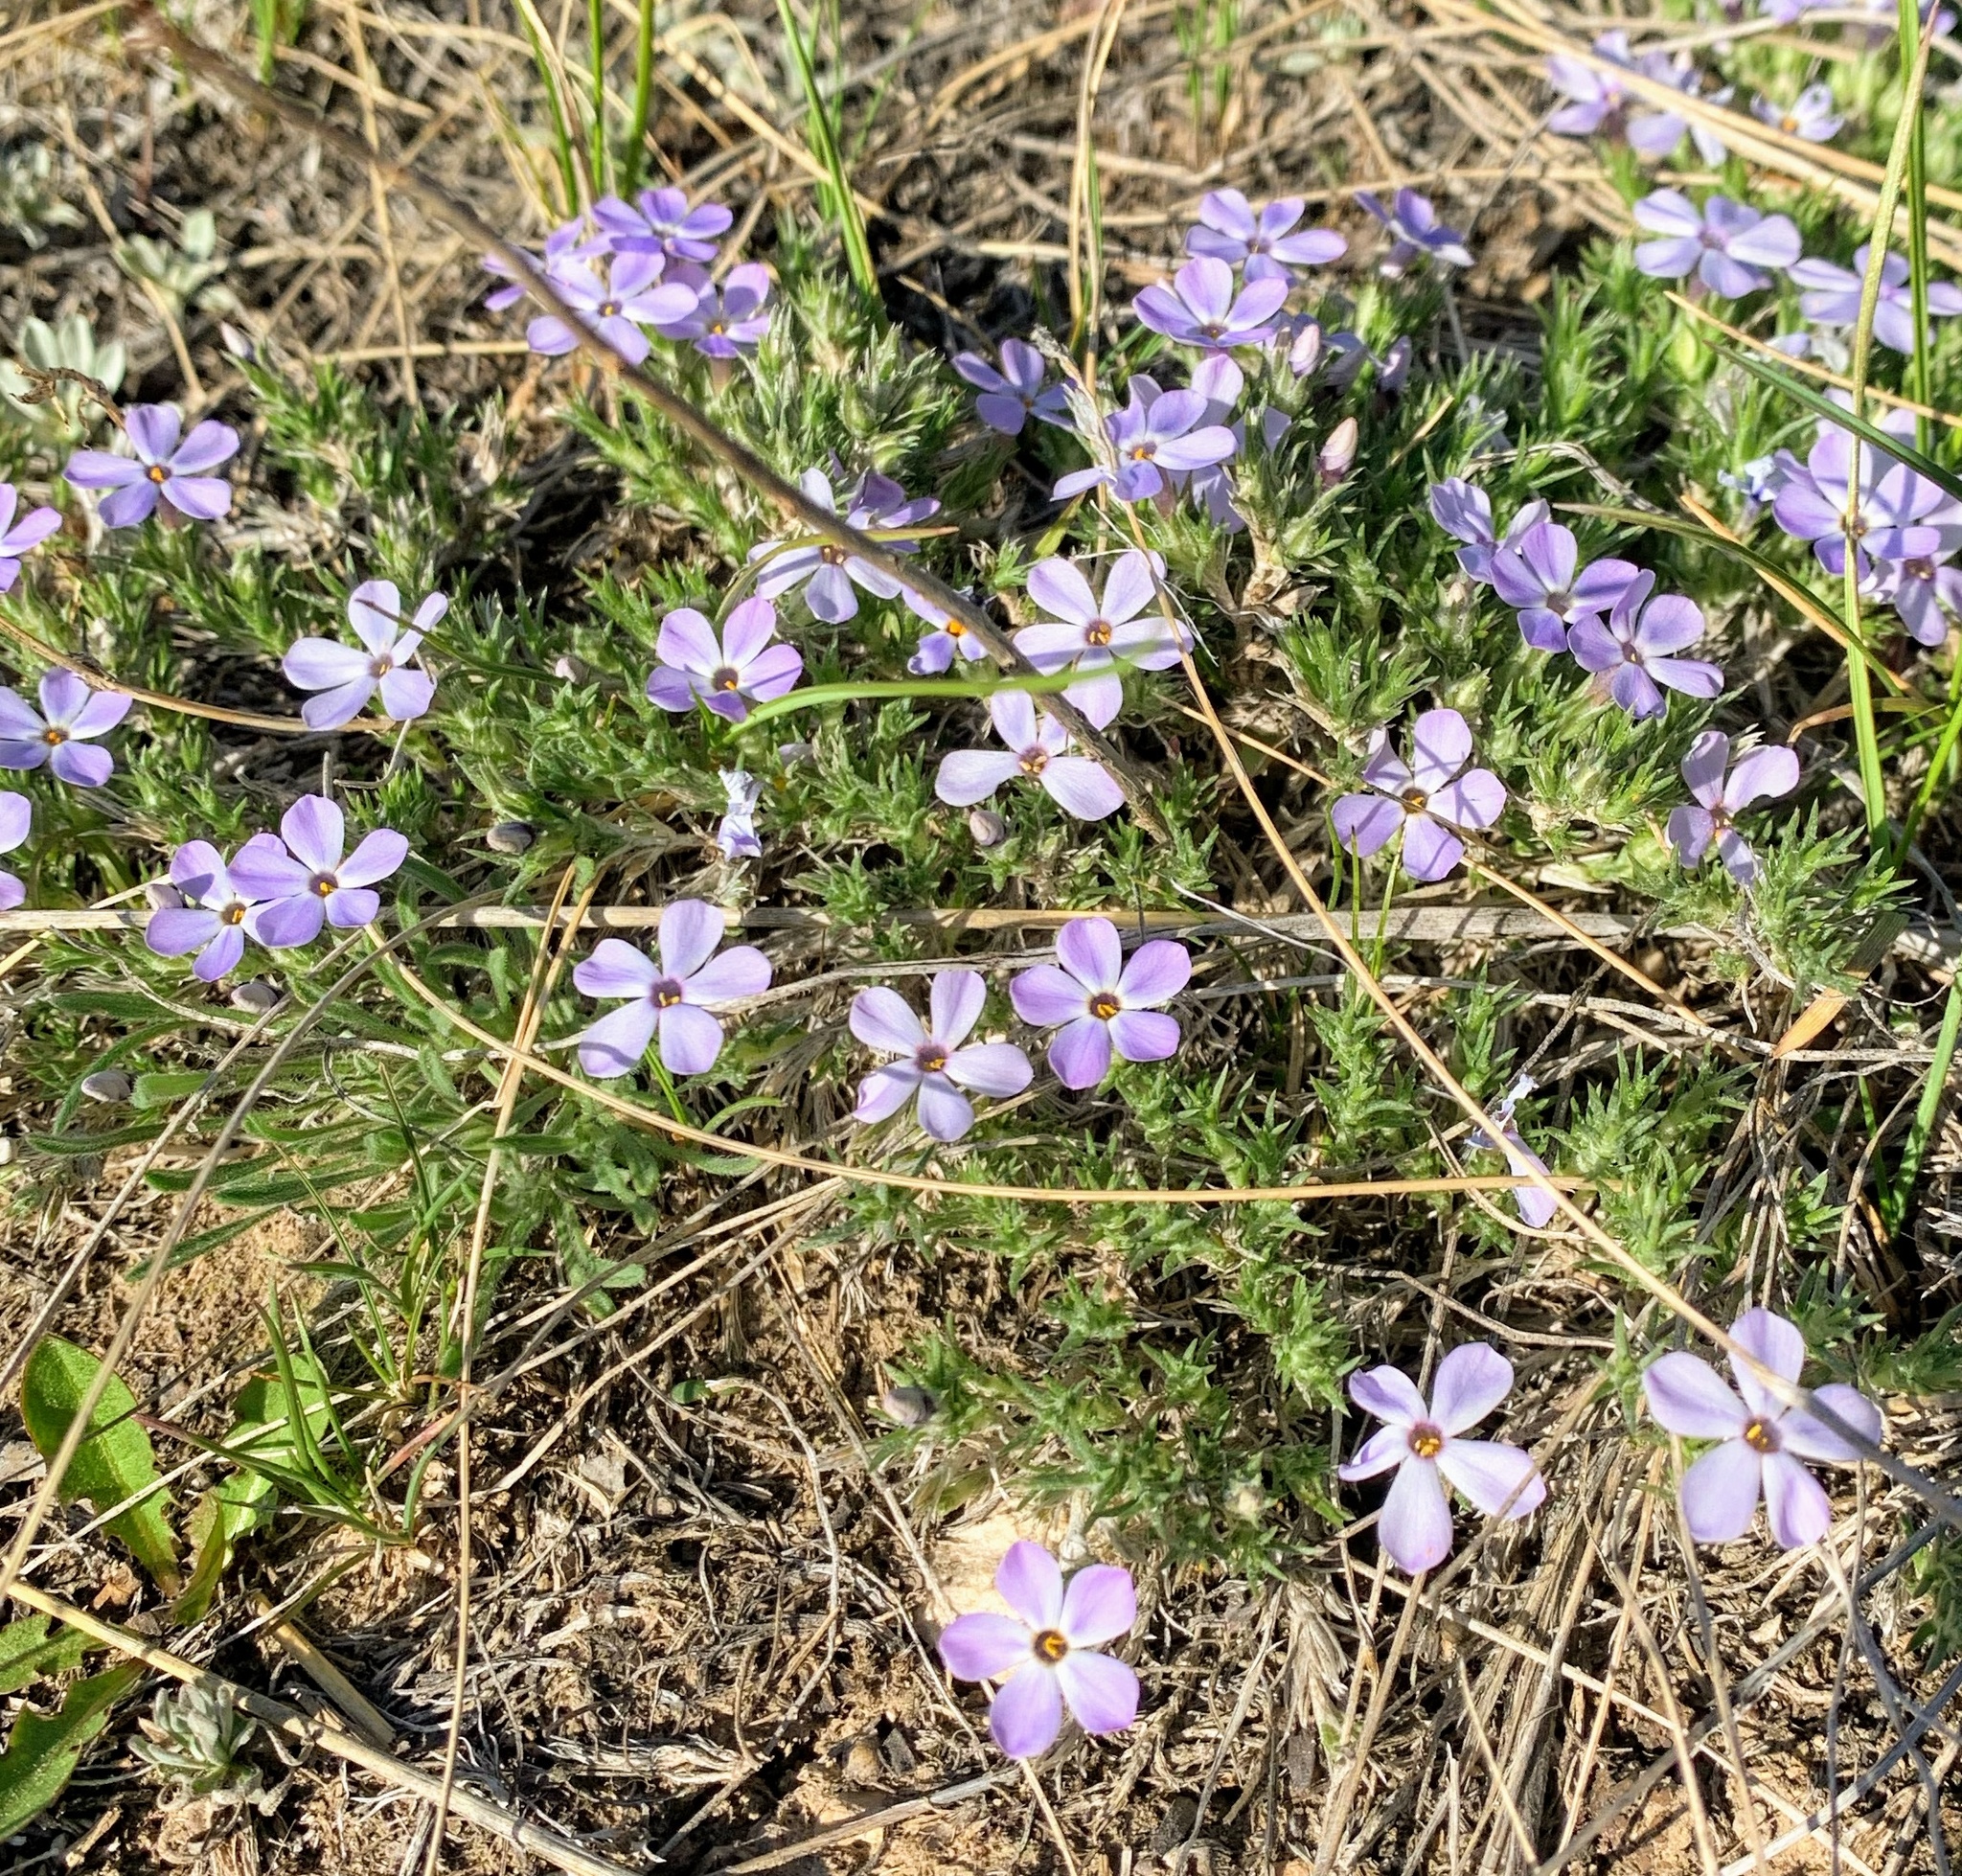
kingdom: Plantae
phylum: Tracheophyta
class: Magnoliopsida
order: Ericales
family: Polemoniaceae
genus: Phlox
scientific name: Phlox hoodii
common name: Moss phlox
